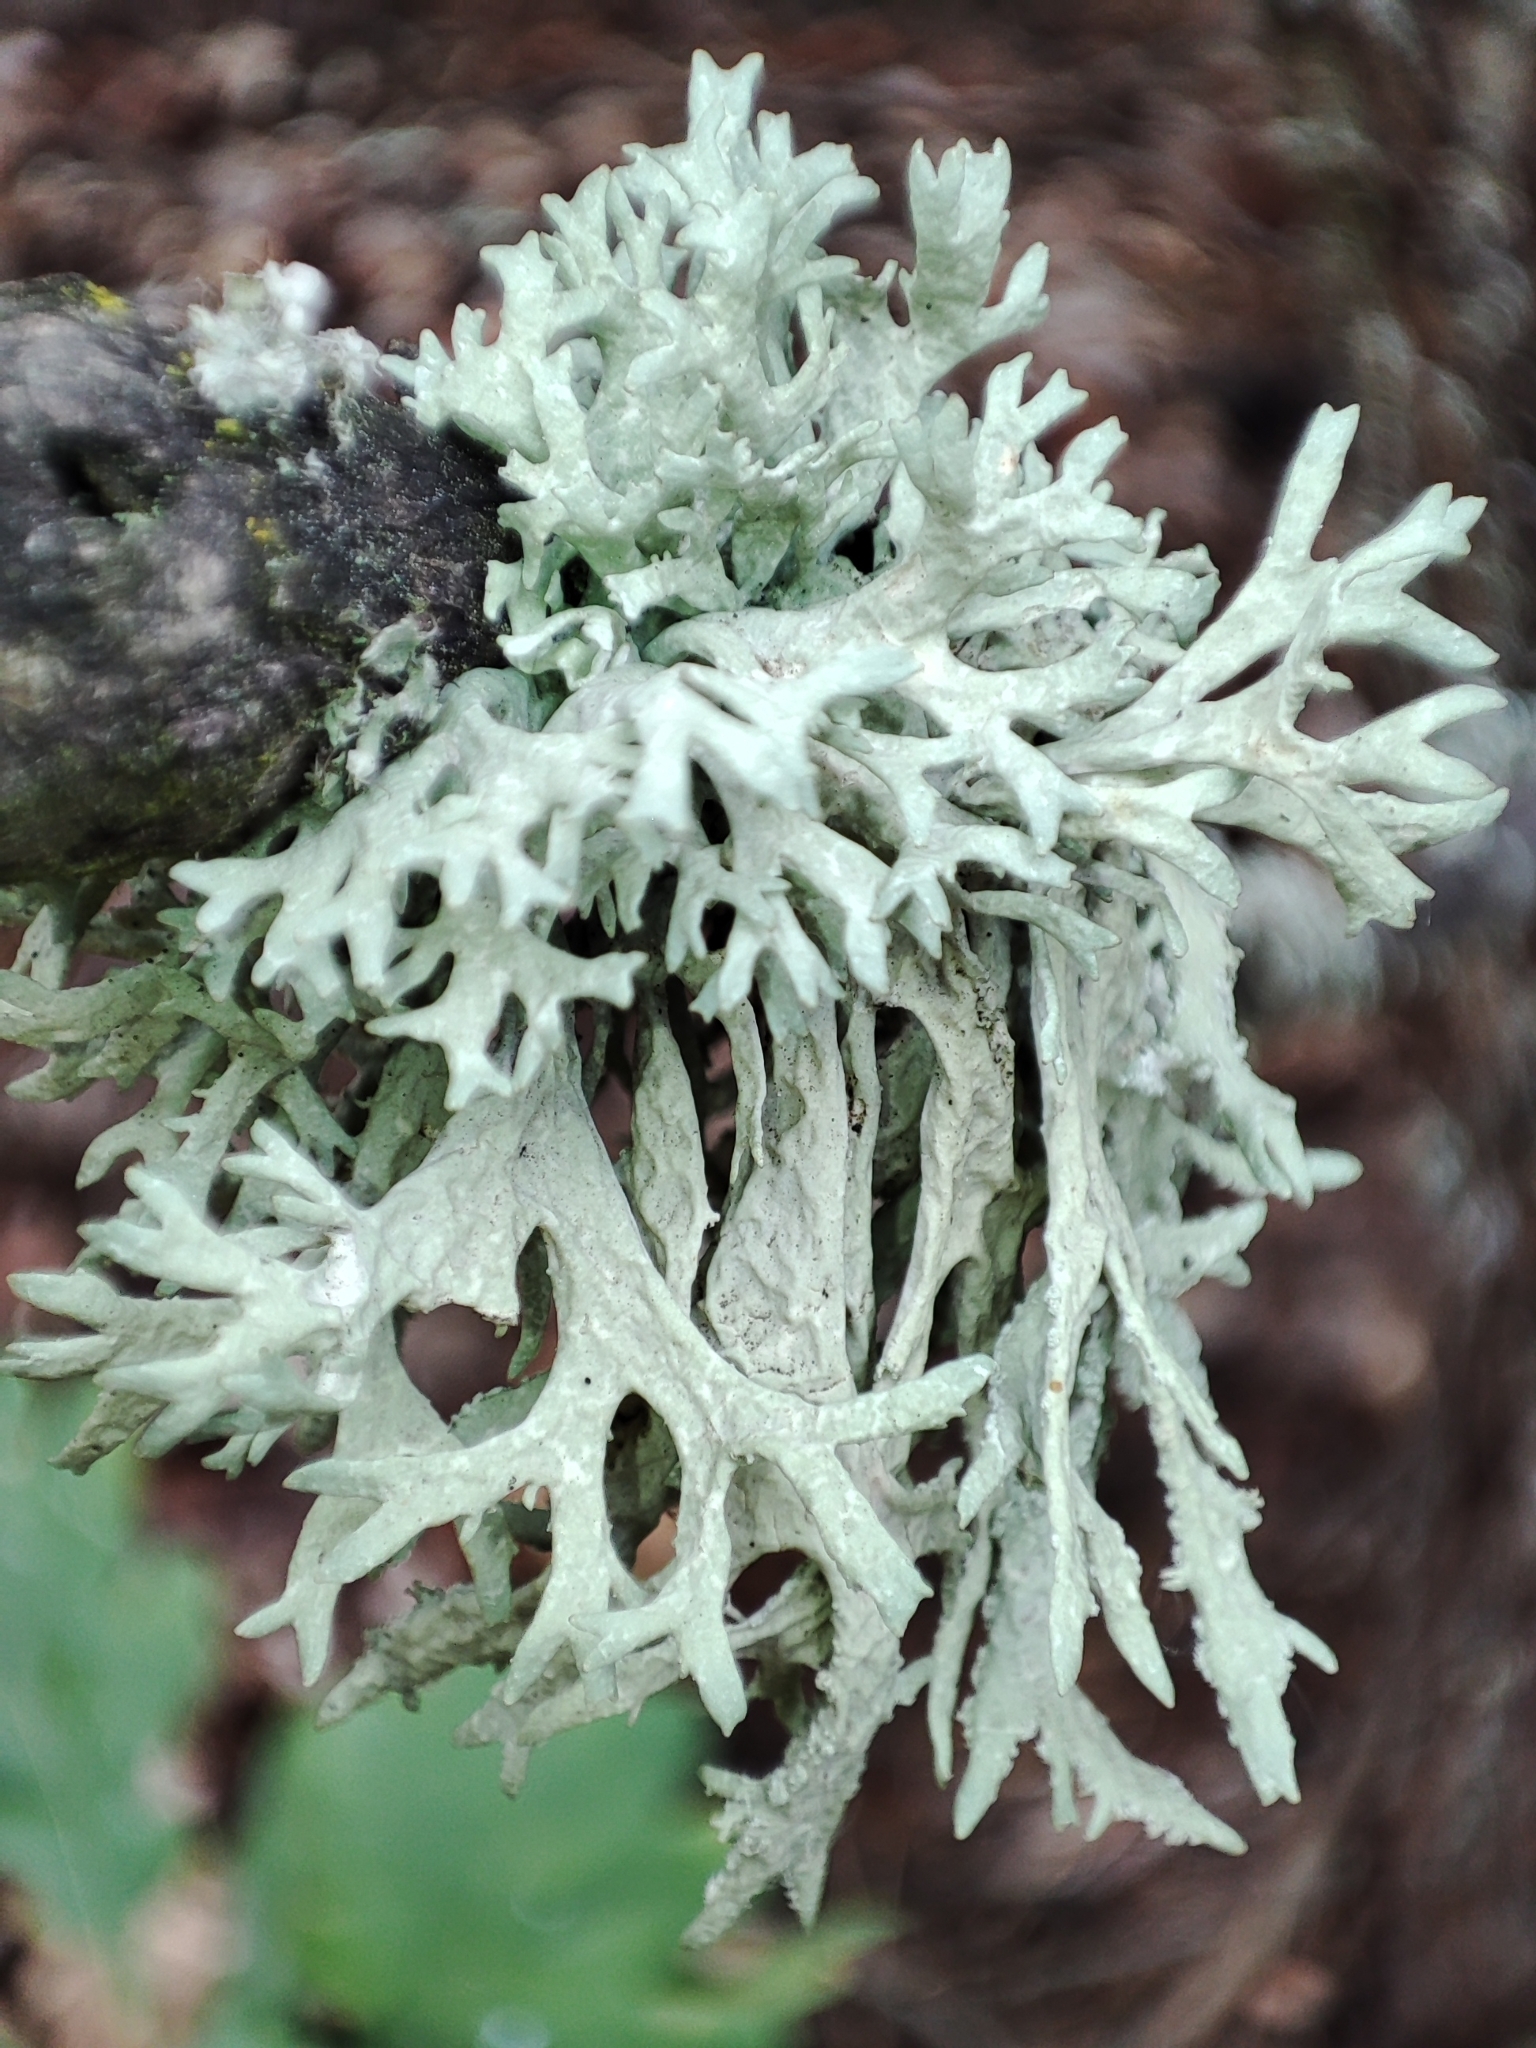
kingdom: Fungi
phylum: Ascomycota
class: Lecanoromycetes
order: Lecanorales
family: Parmeliaceae
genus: Evernia
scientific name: Evernia prunastri
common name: Oak moss
